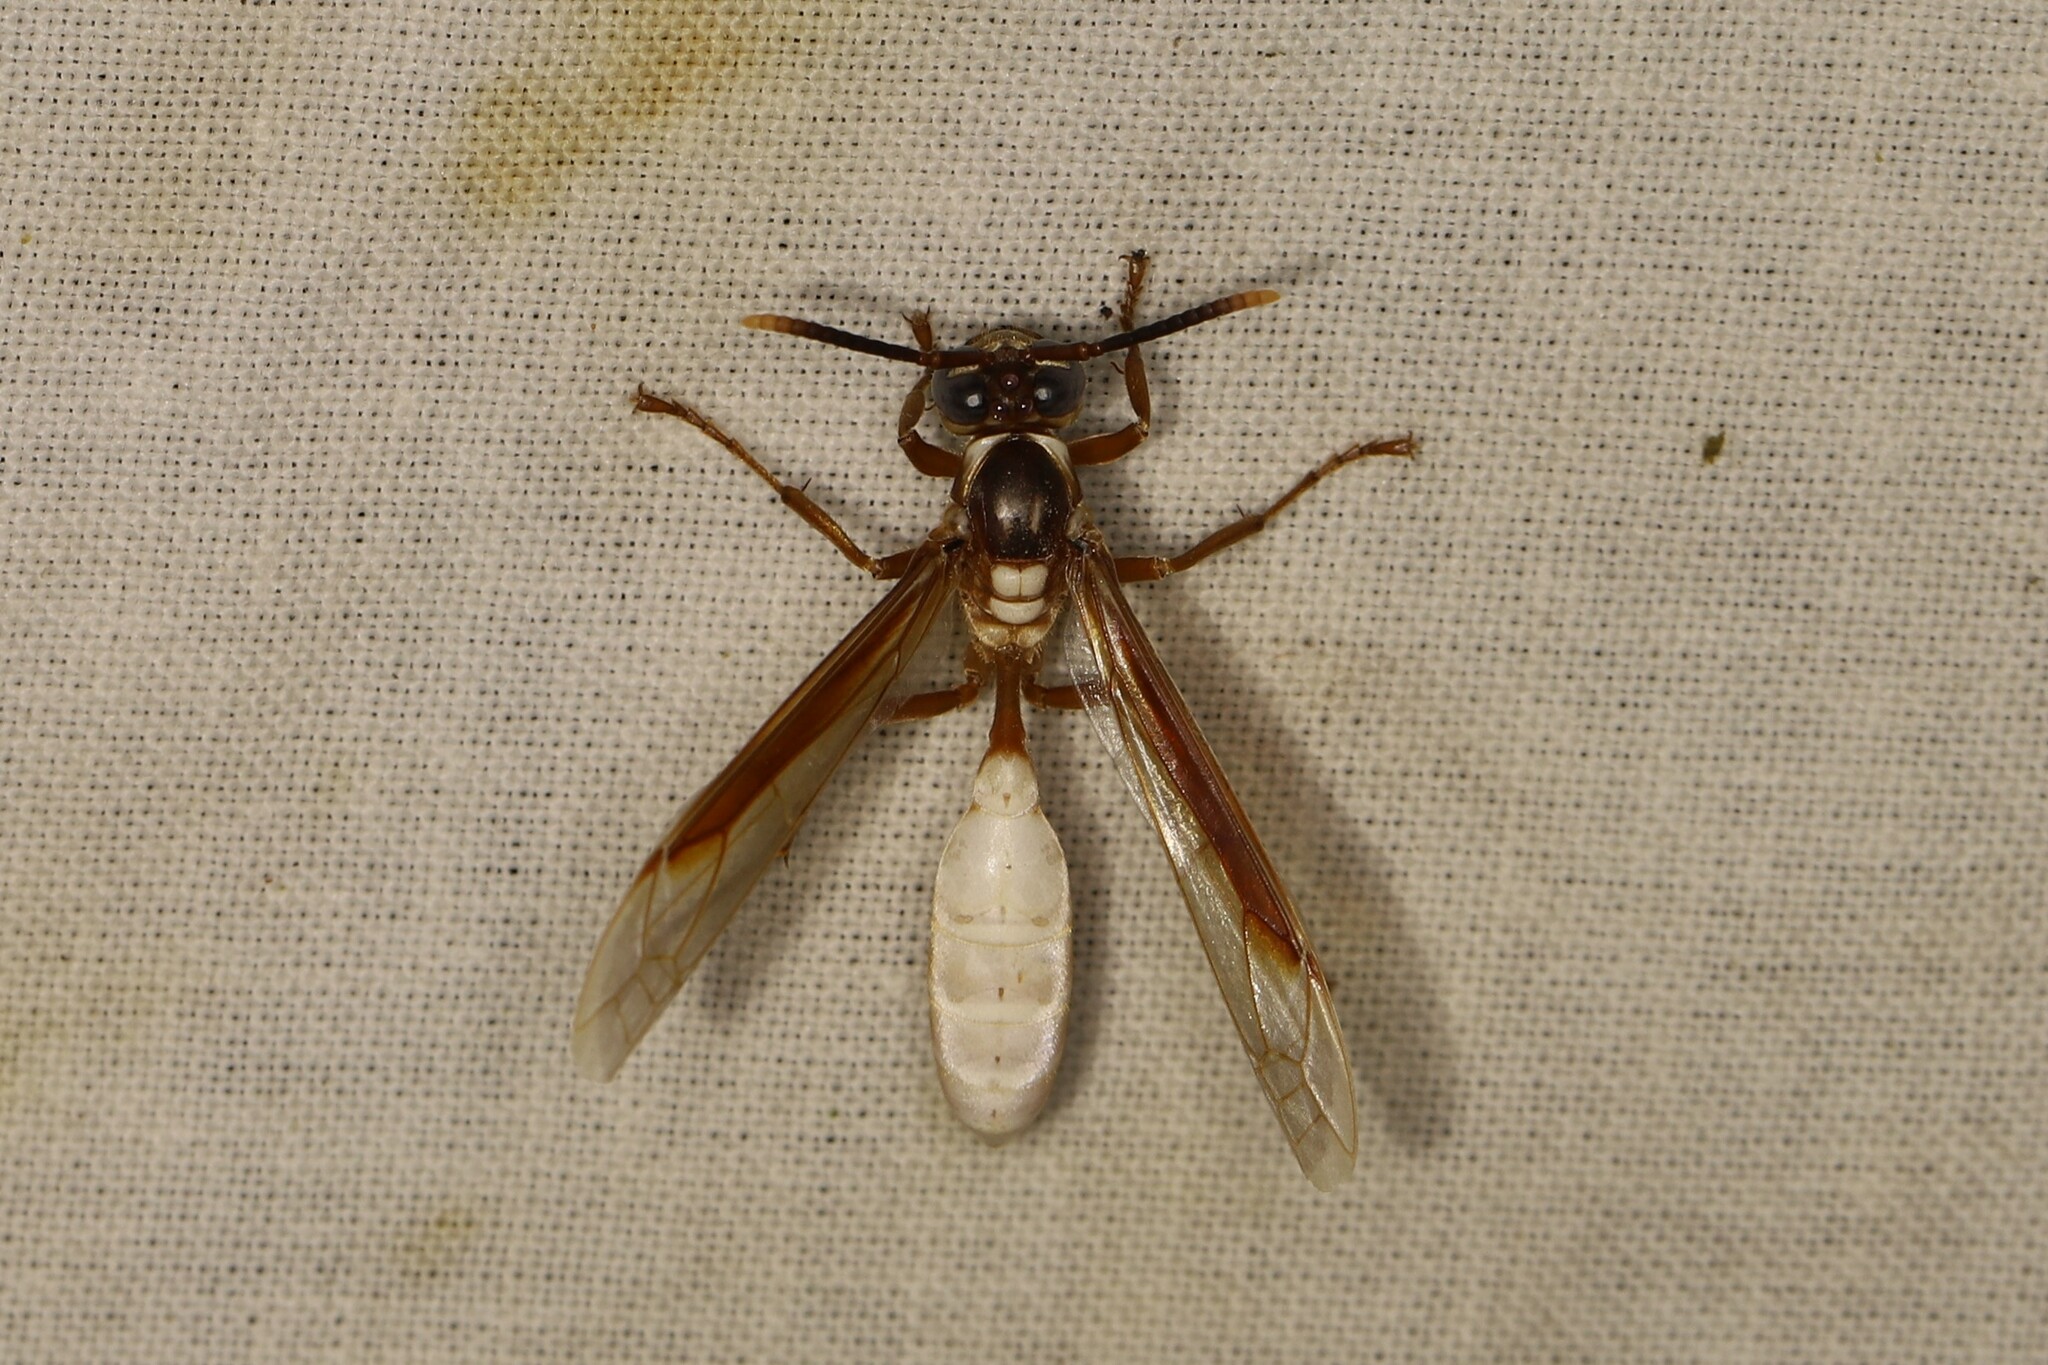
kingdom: Animalia
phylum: Arthropoda
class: Insecta
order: Hymenoptera
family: Vespidae
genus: Apoica
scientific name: Apoica pallens
